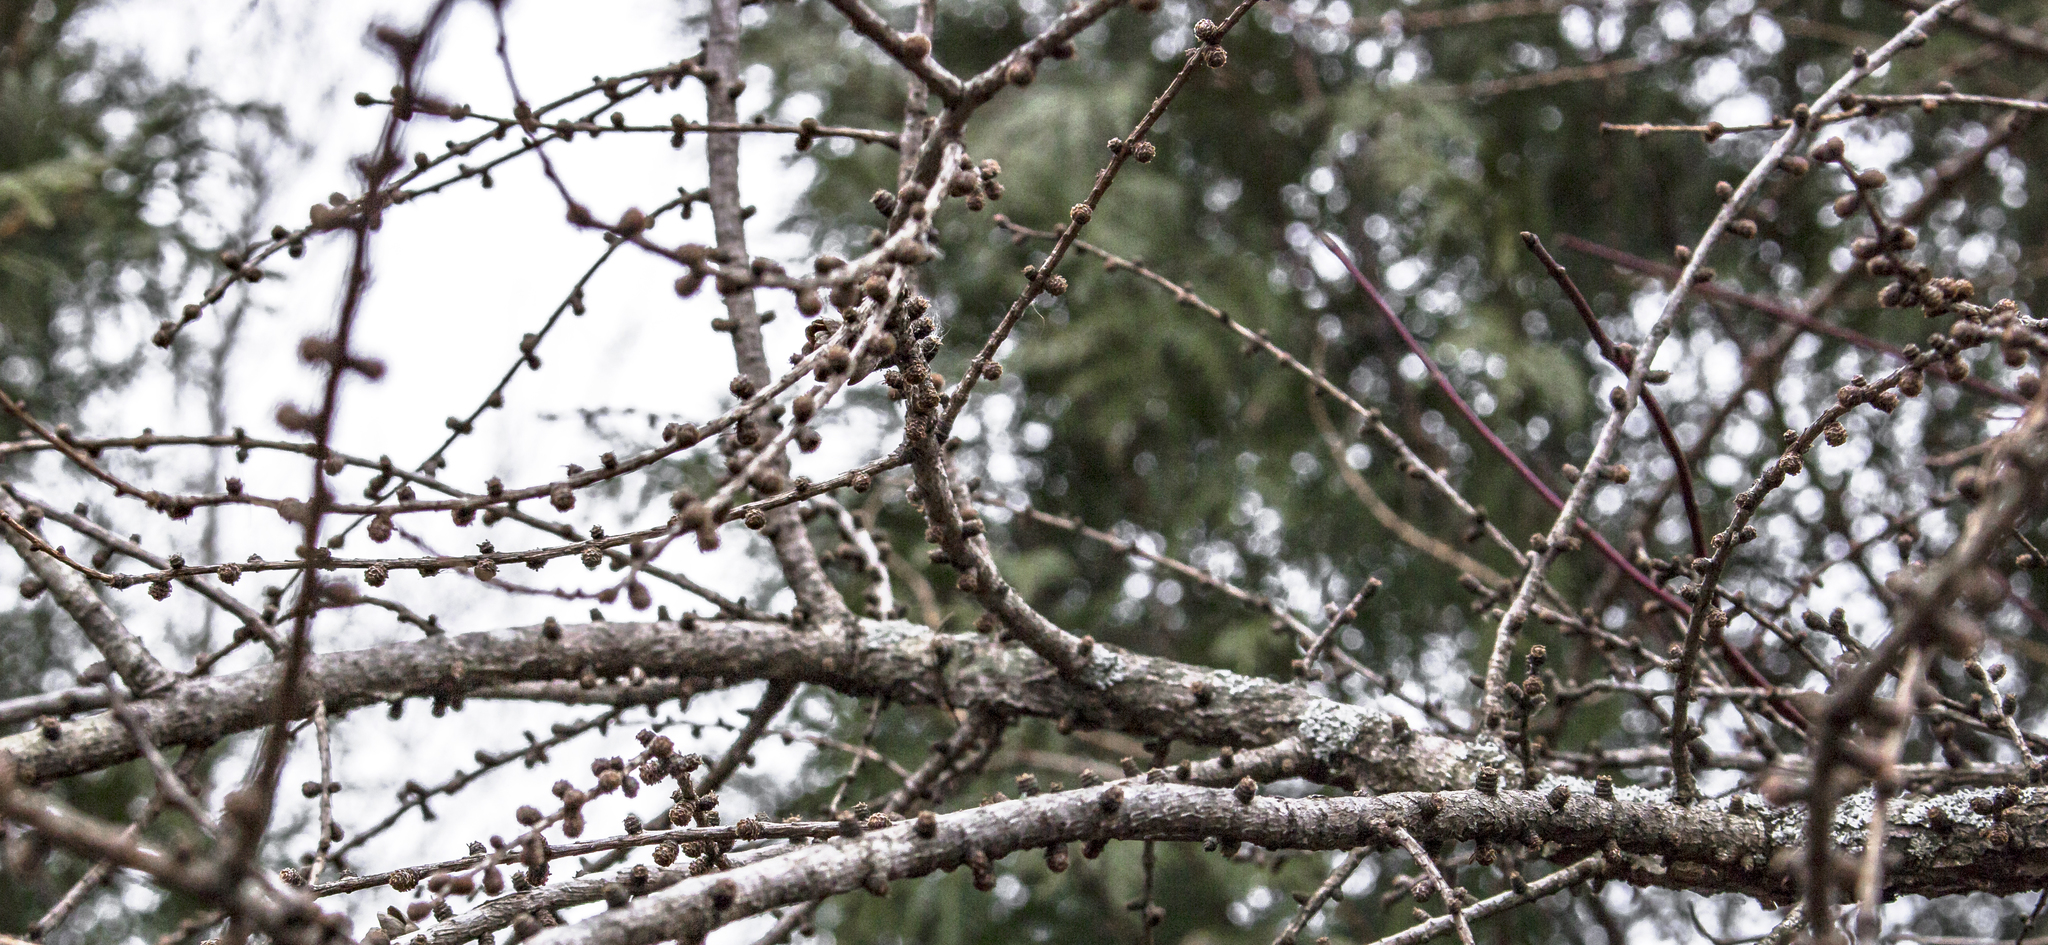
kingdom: Plantae
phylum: Tracheophyta
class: Pinopsida
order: Pinales
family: Pinaceae
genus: Larix
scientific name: Larix laricina
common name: American larch
